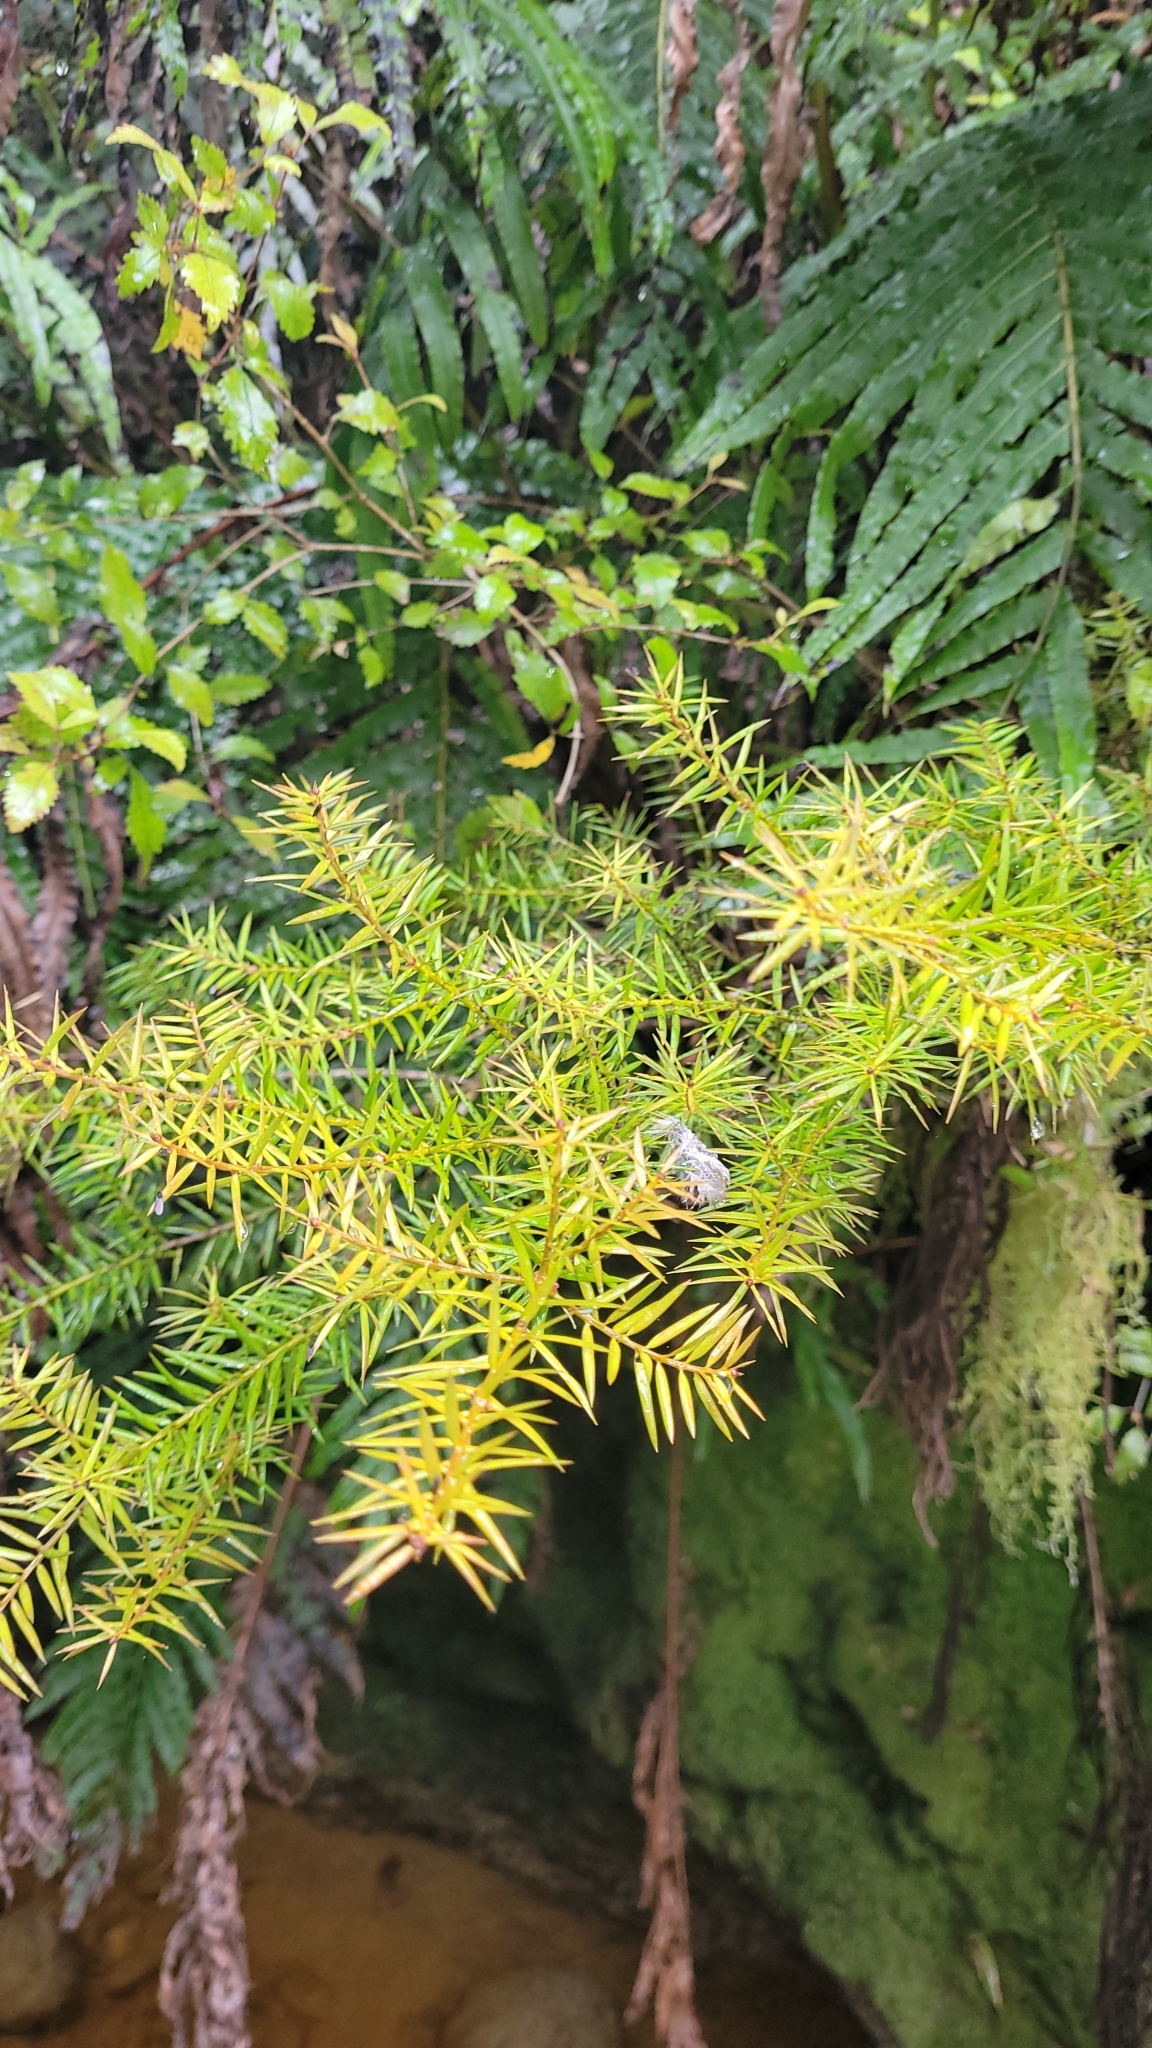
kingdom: Plantae
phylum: Tracheophyta
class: Pinopsida
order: Pinales
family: Podocarpaceae
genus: Podocarpus
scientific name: Podocarpus totara
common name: Totara
